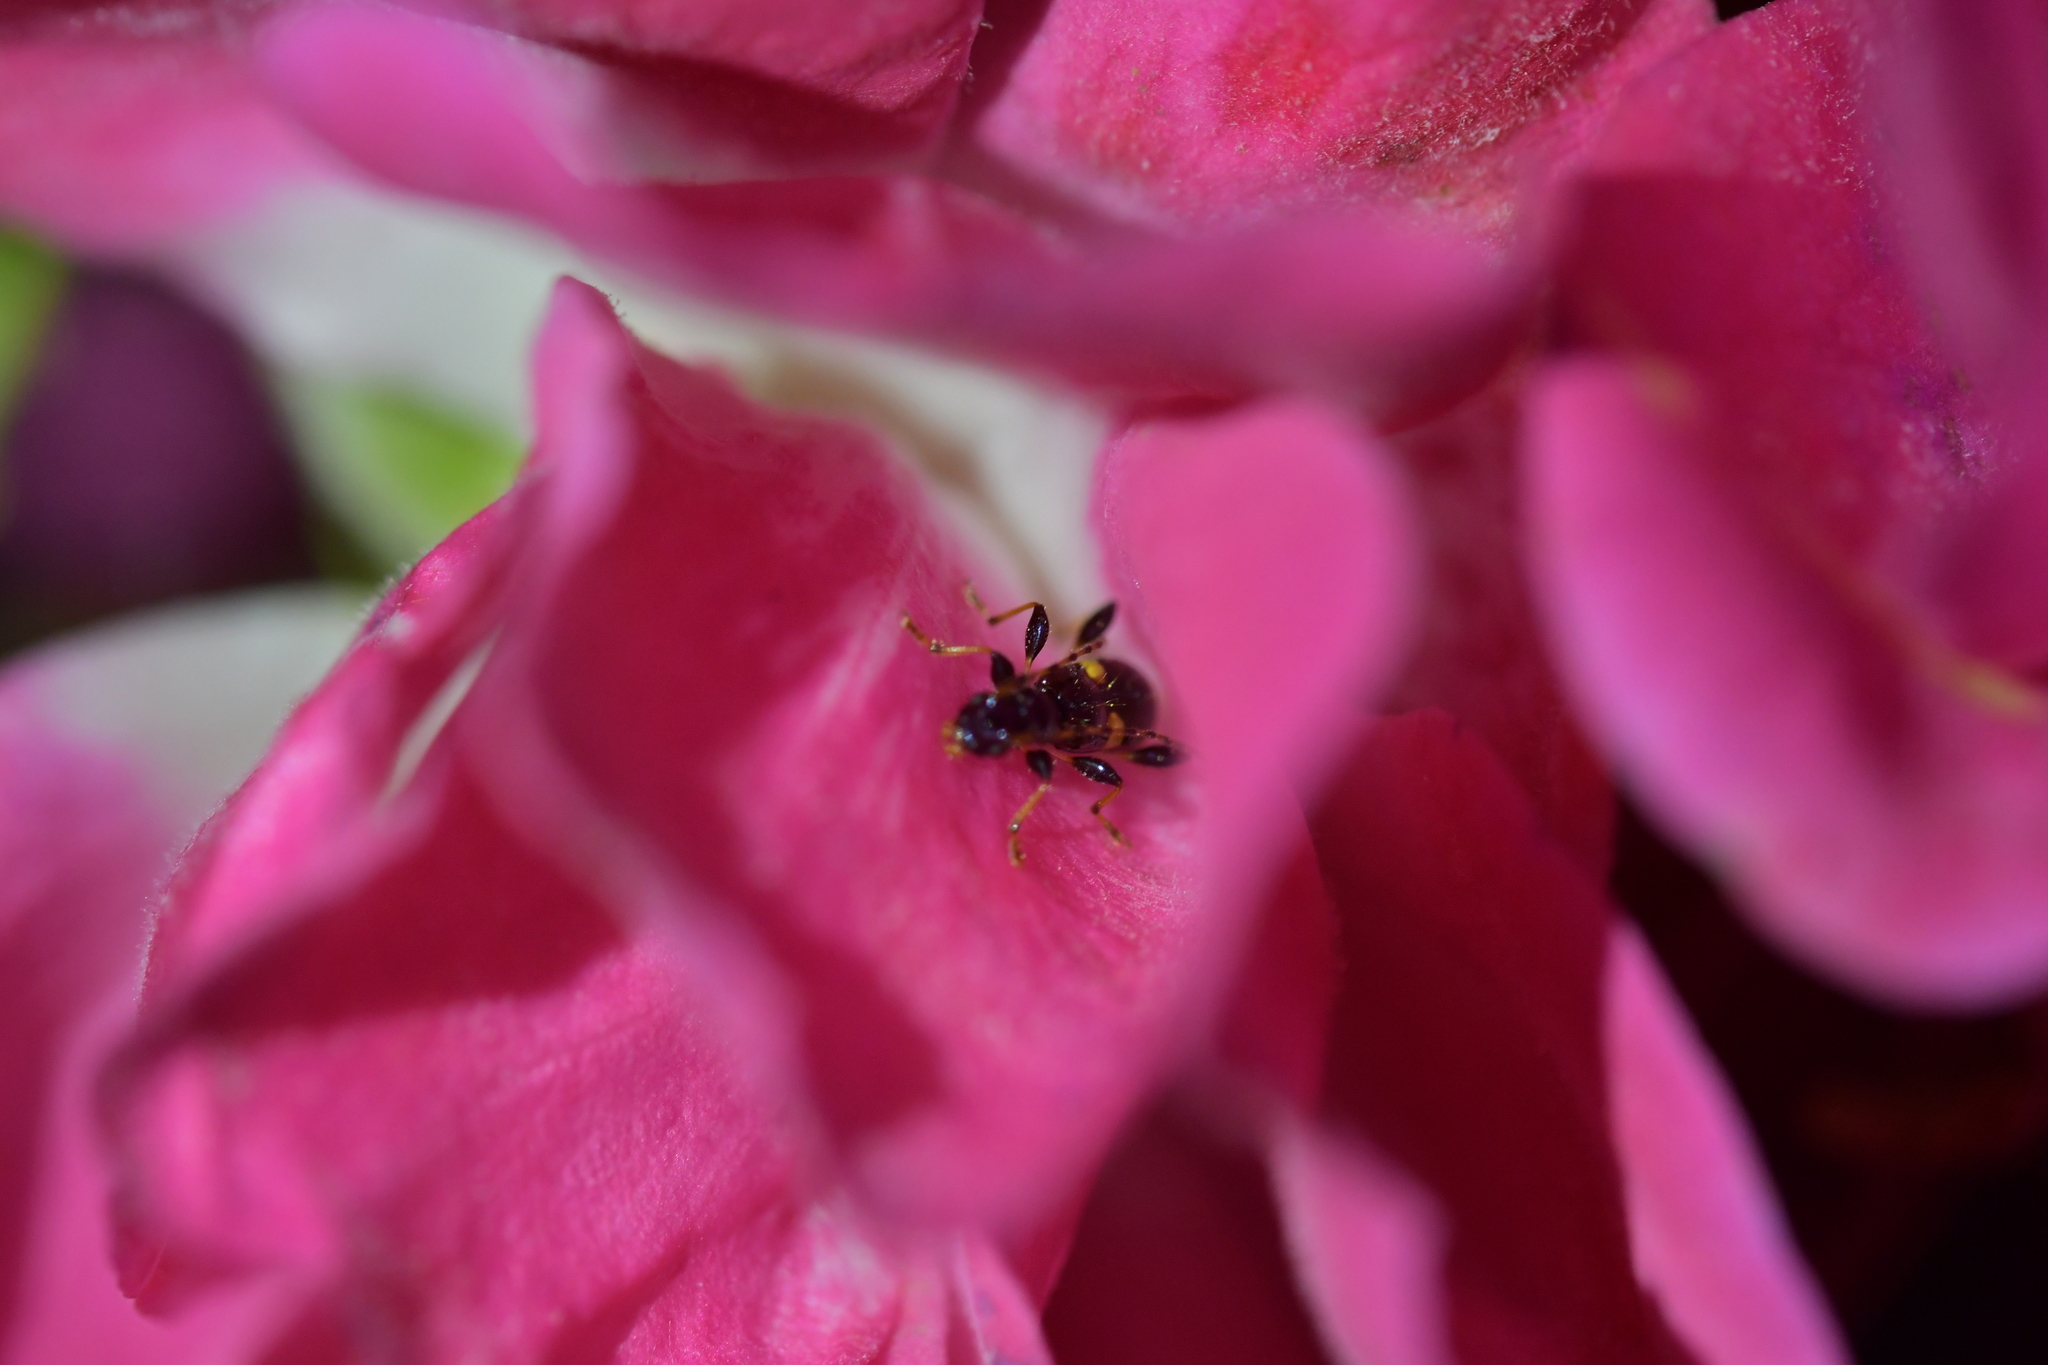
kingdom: Animalia
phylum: Arthropoda
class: Insecta
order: Coleoptera
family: Cerambycidae
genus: Zorion
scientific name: Zorion guttigerum
